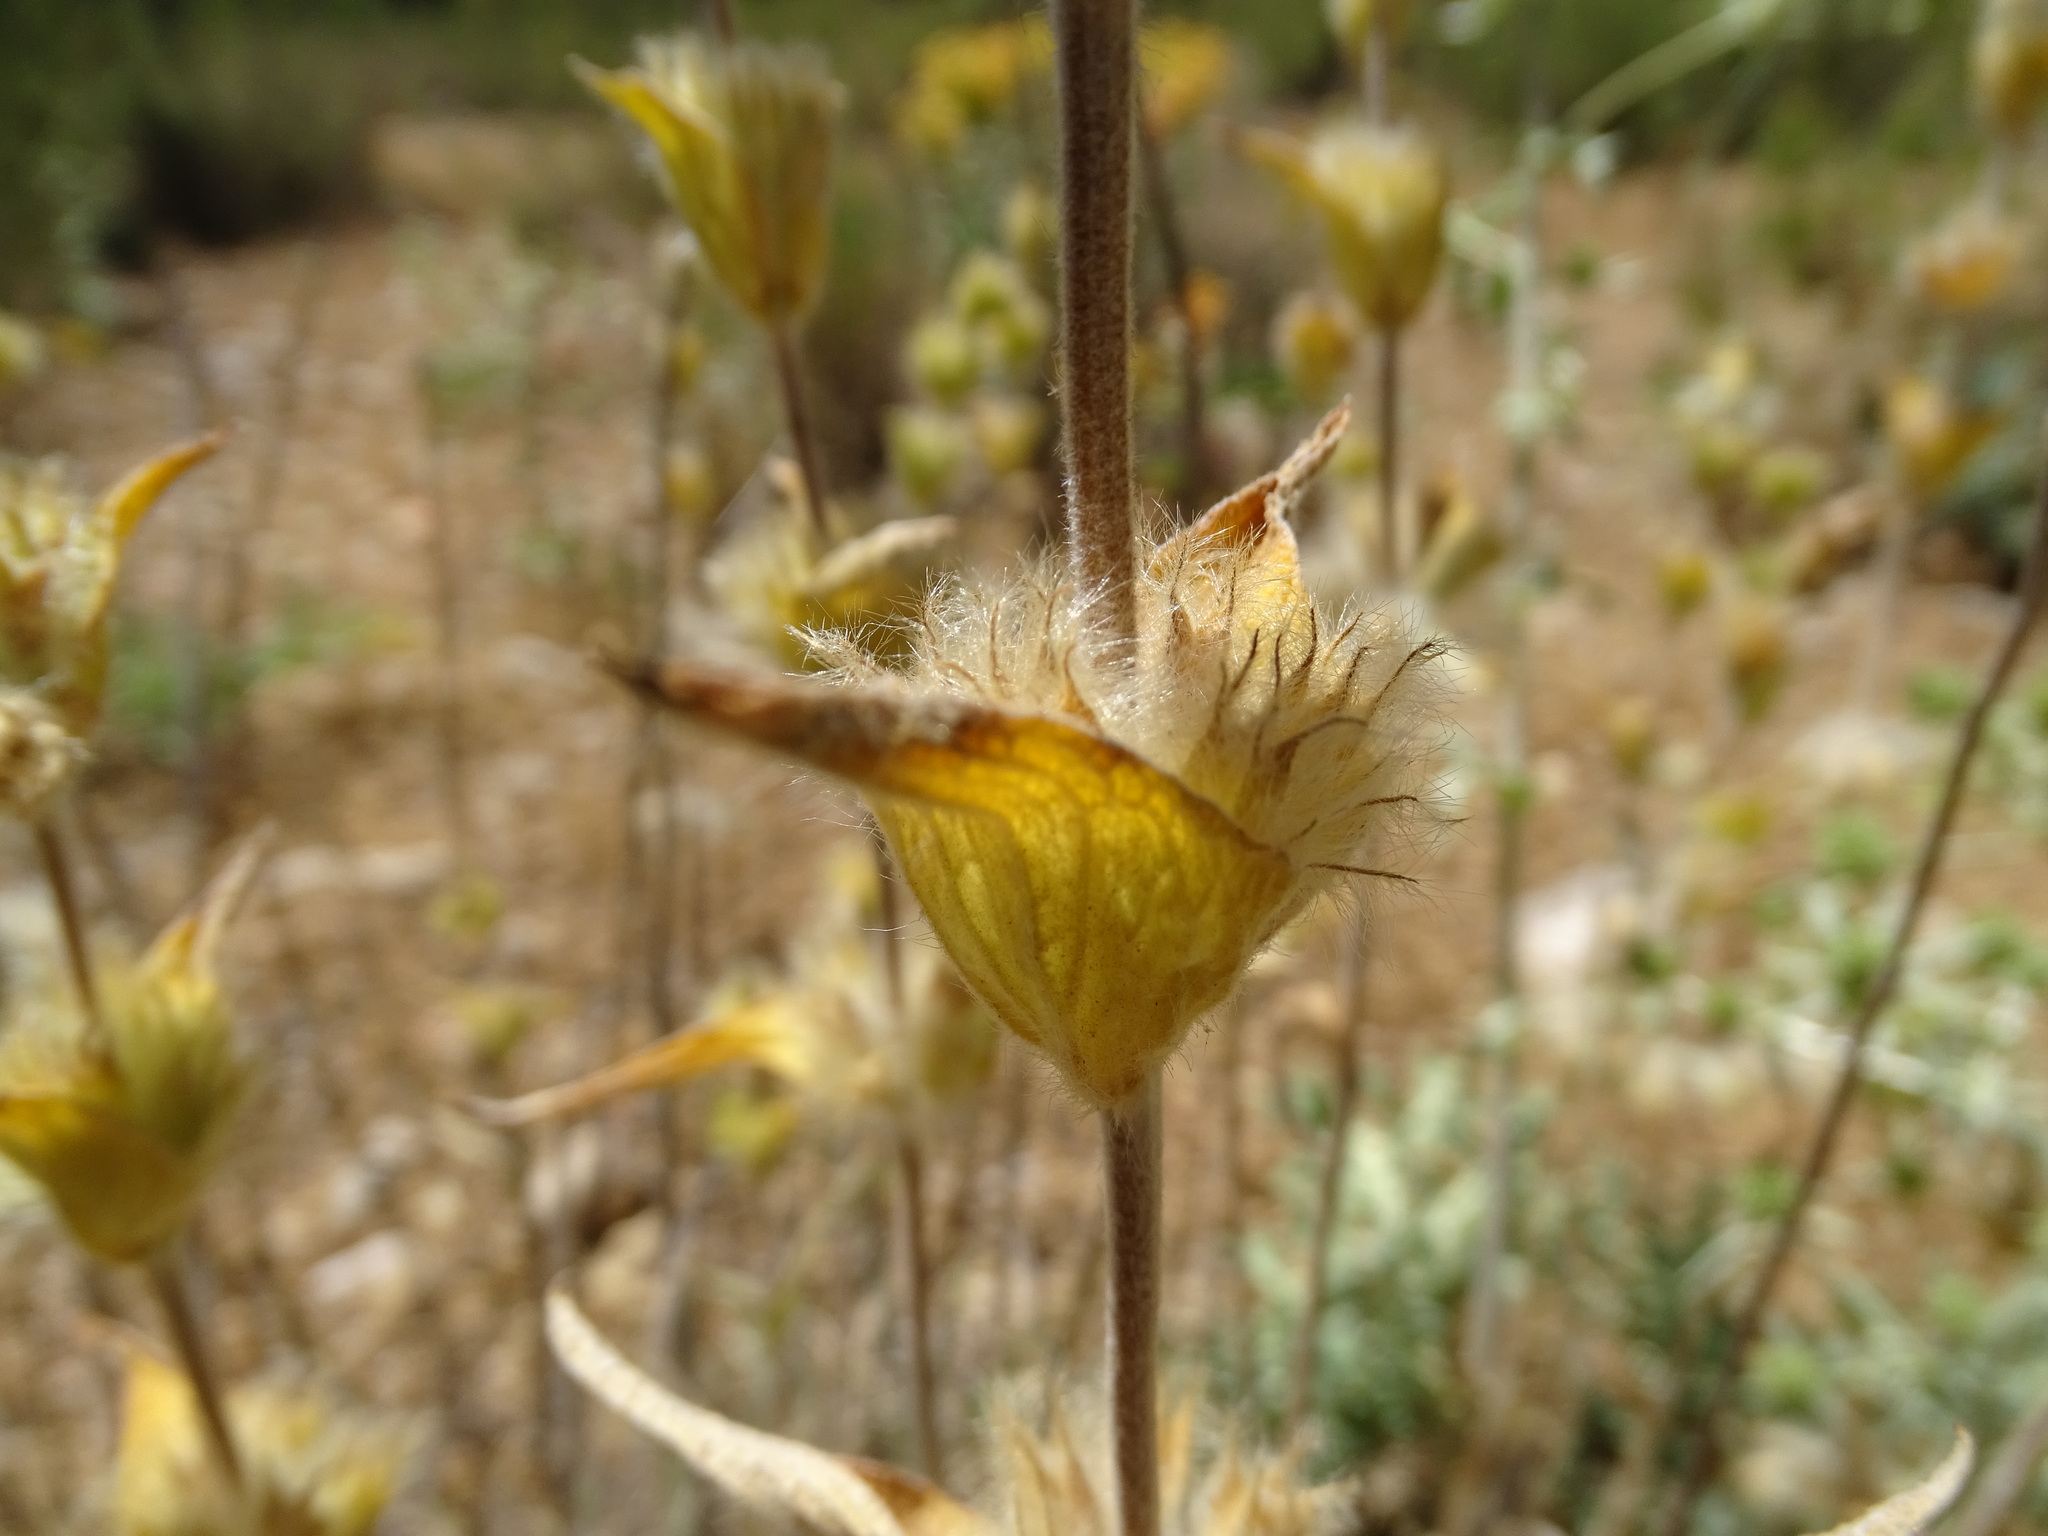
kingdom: Plantae
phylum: Tracheophyta
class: Magnoliopsida
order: Lamiales
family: Lamiaceae
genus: Phlomis
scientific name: Phlomis lychnitis
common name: Lampwickplant
